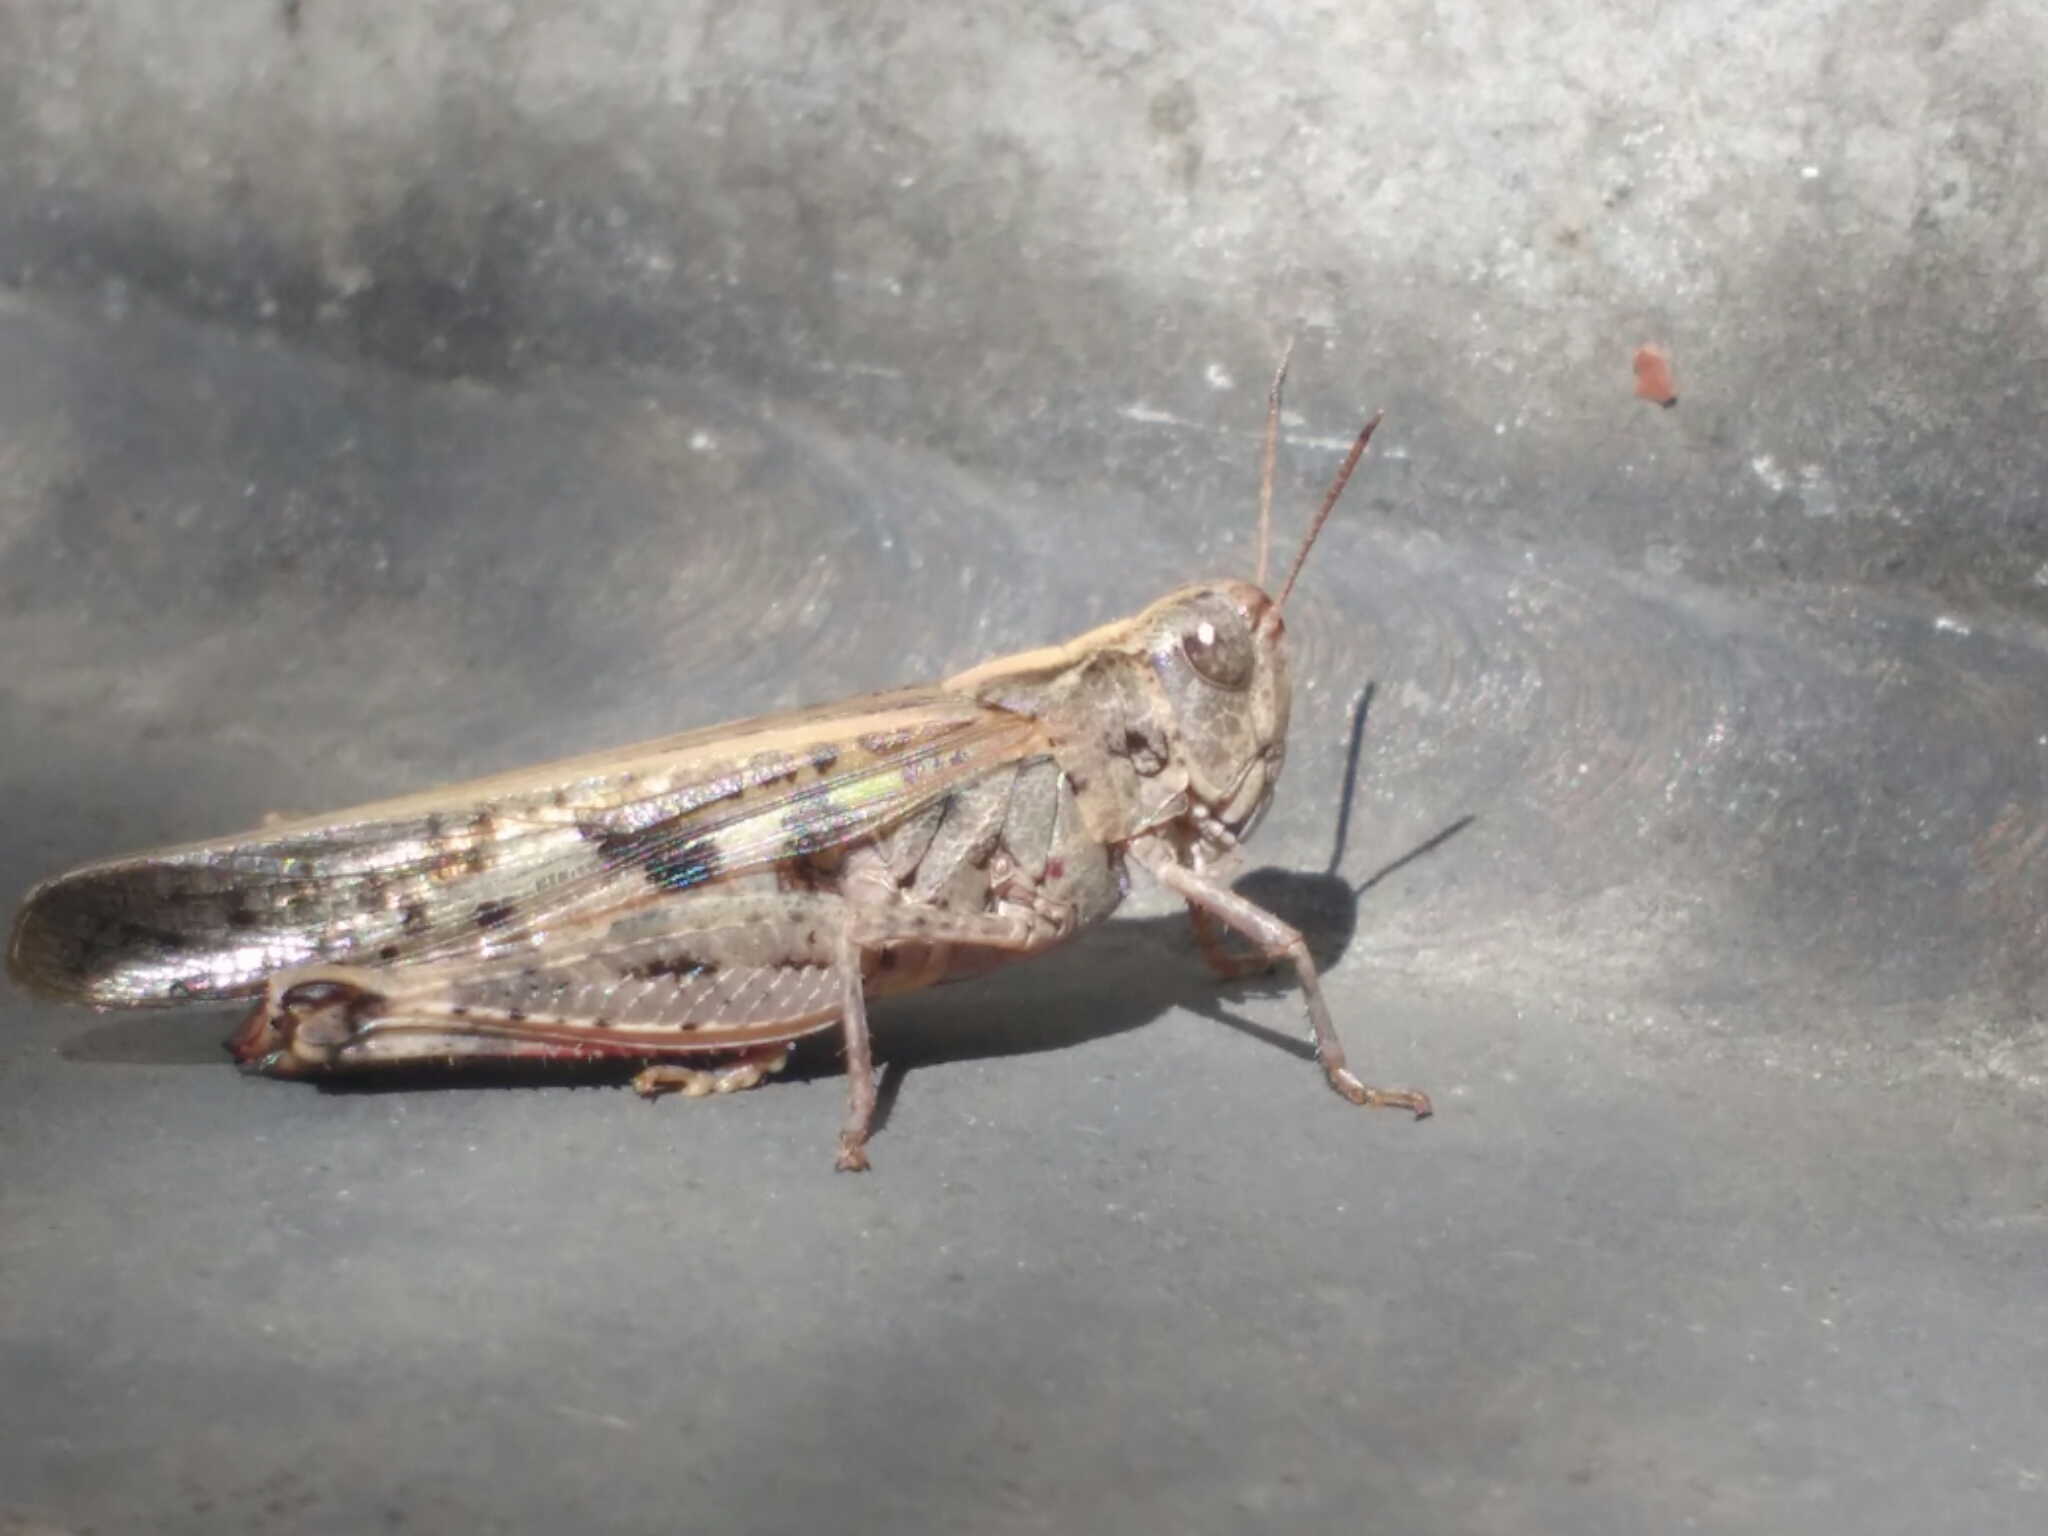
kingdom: Animalia
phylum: Arthropoda
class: Insecta
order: Orthoptera
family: Acrididae
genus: Aiolopus
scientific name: Aiolopus thalassinus
